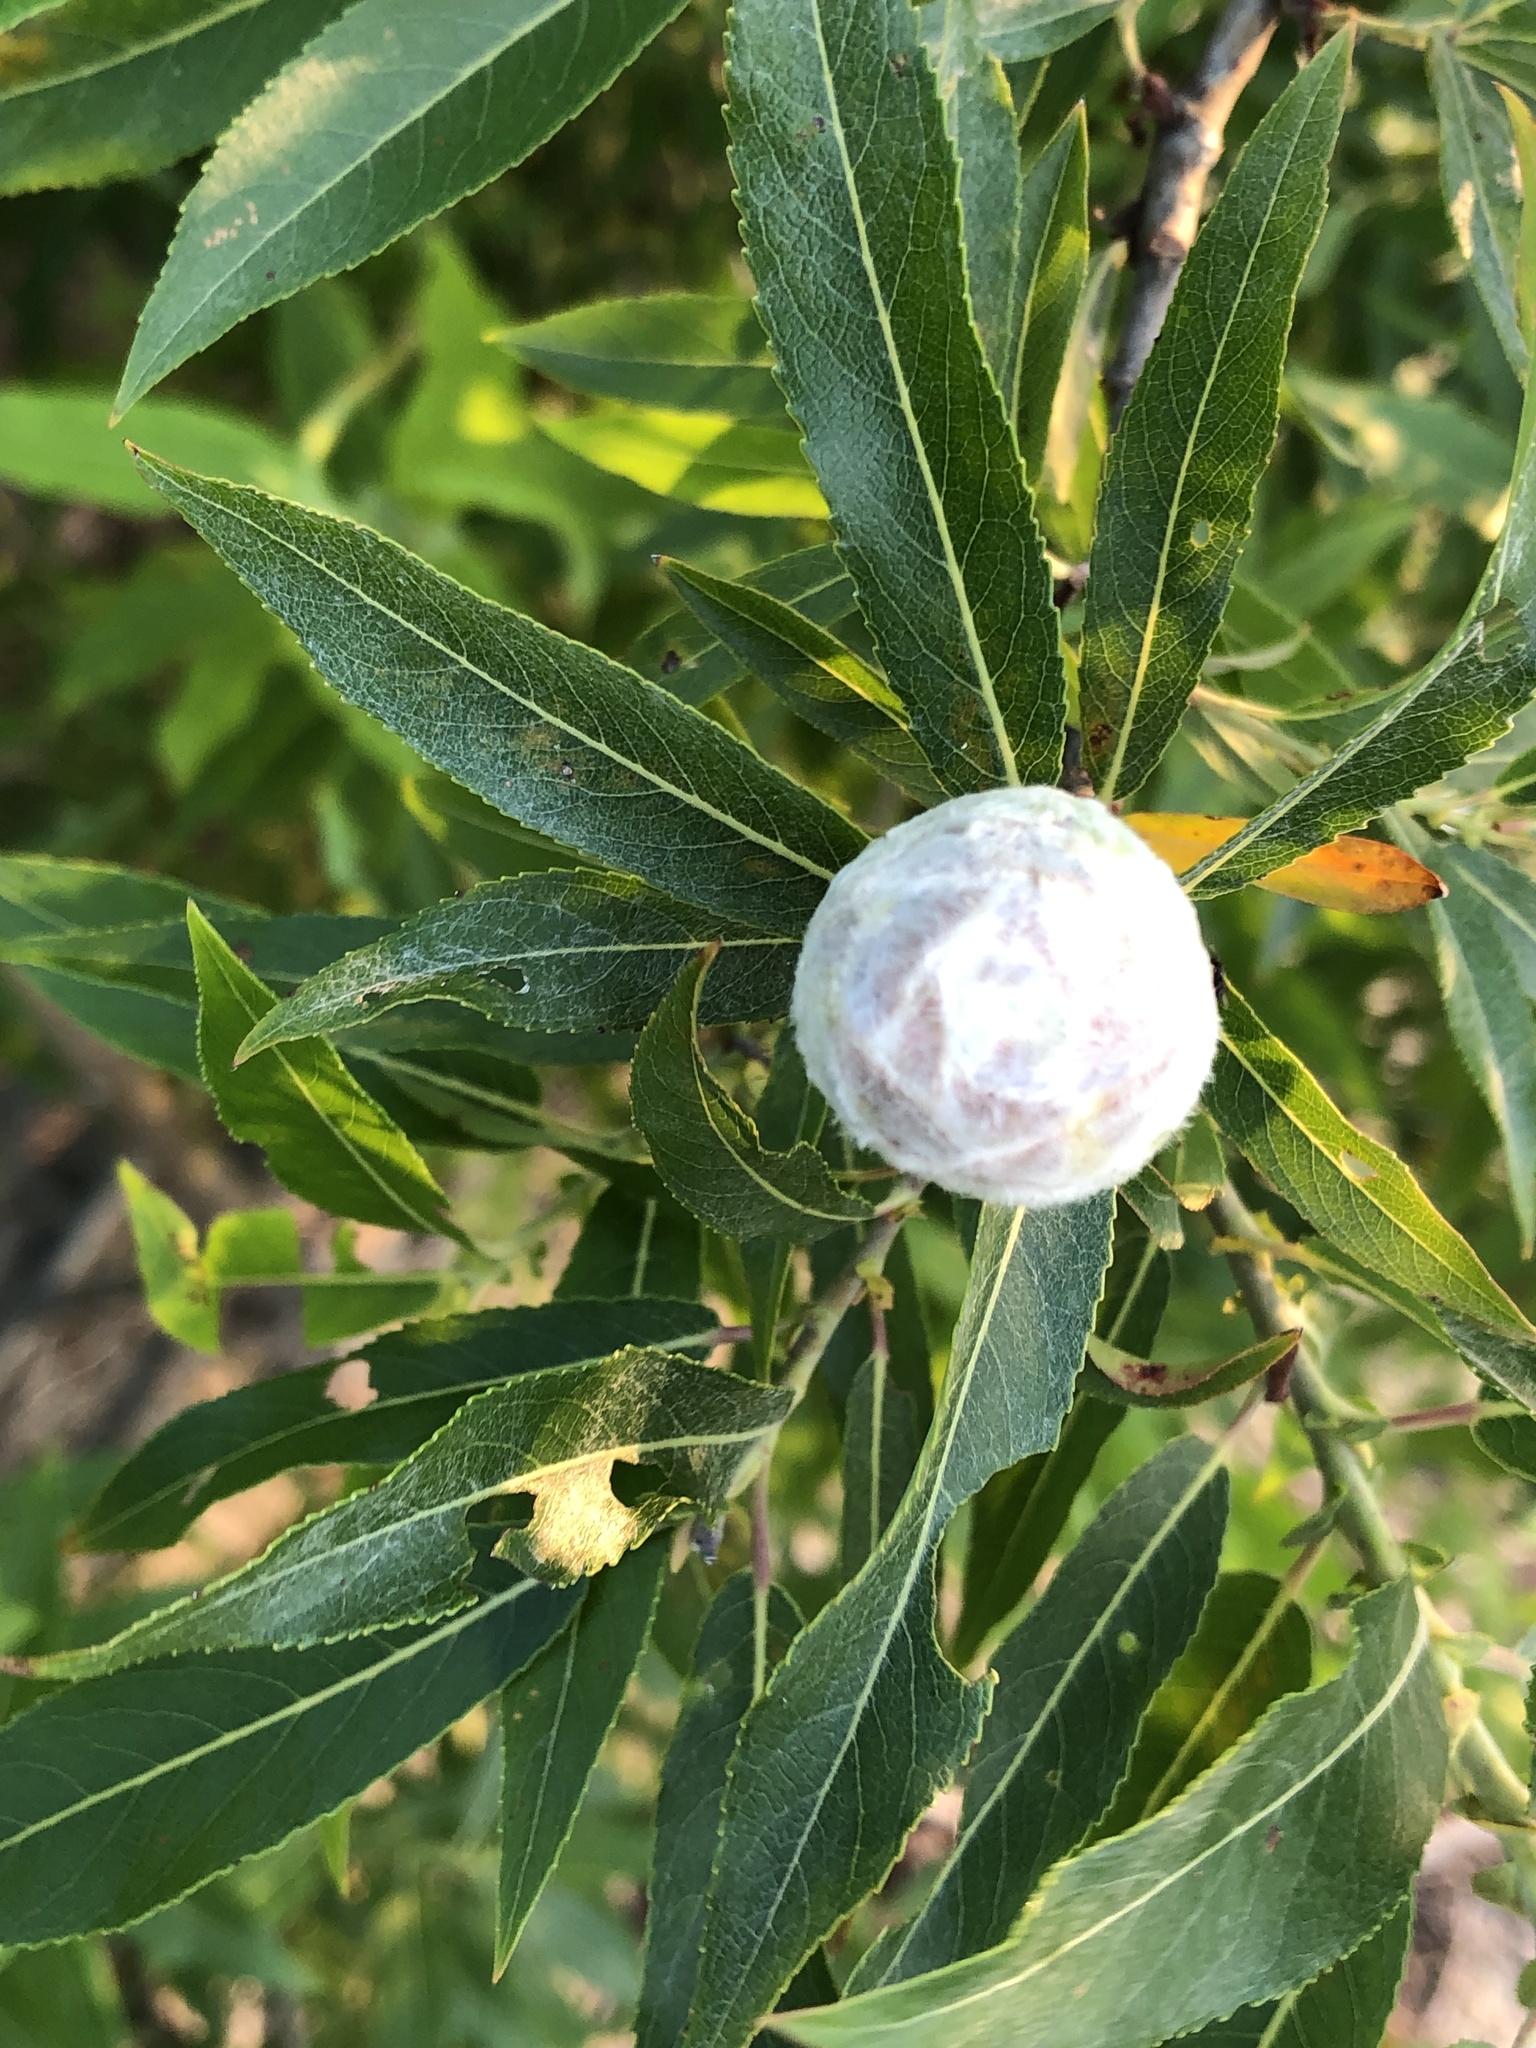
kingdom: Animalia
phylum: Arthropoda
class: Insecta
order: Diptera
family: Cecidomyiidae
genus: Rabdophaga
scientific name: Rabdophaga strobiloides
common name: Willow pinecone gall midge
